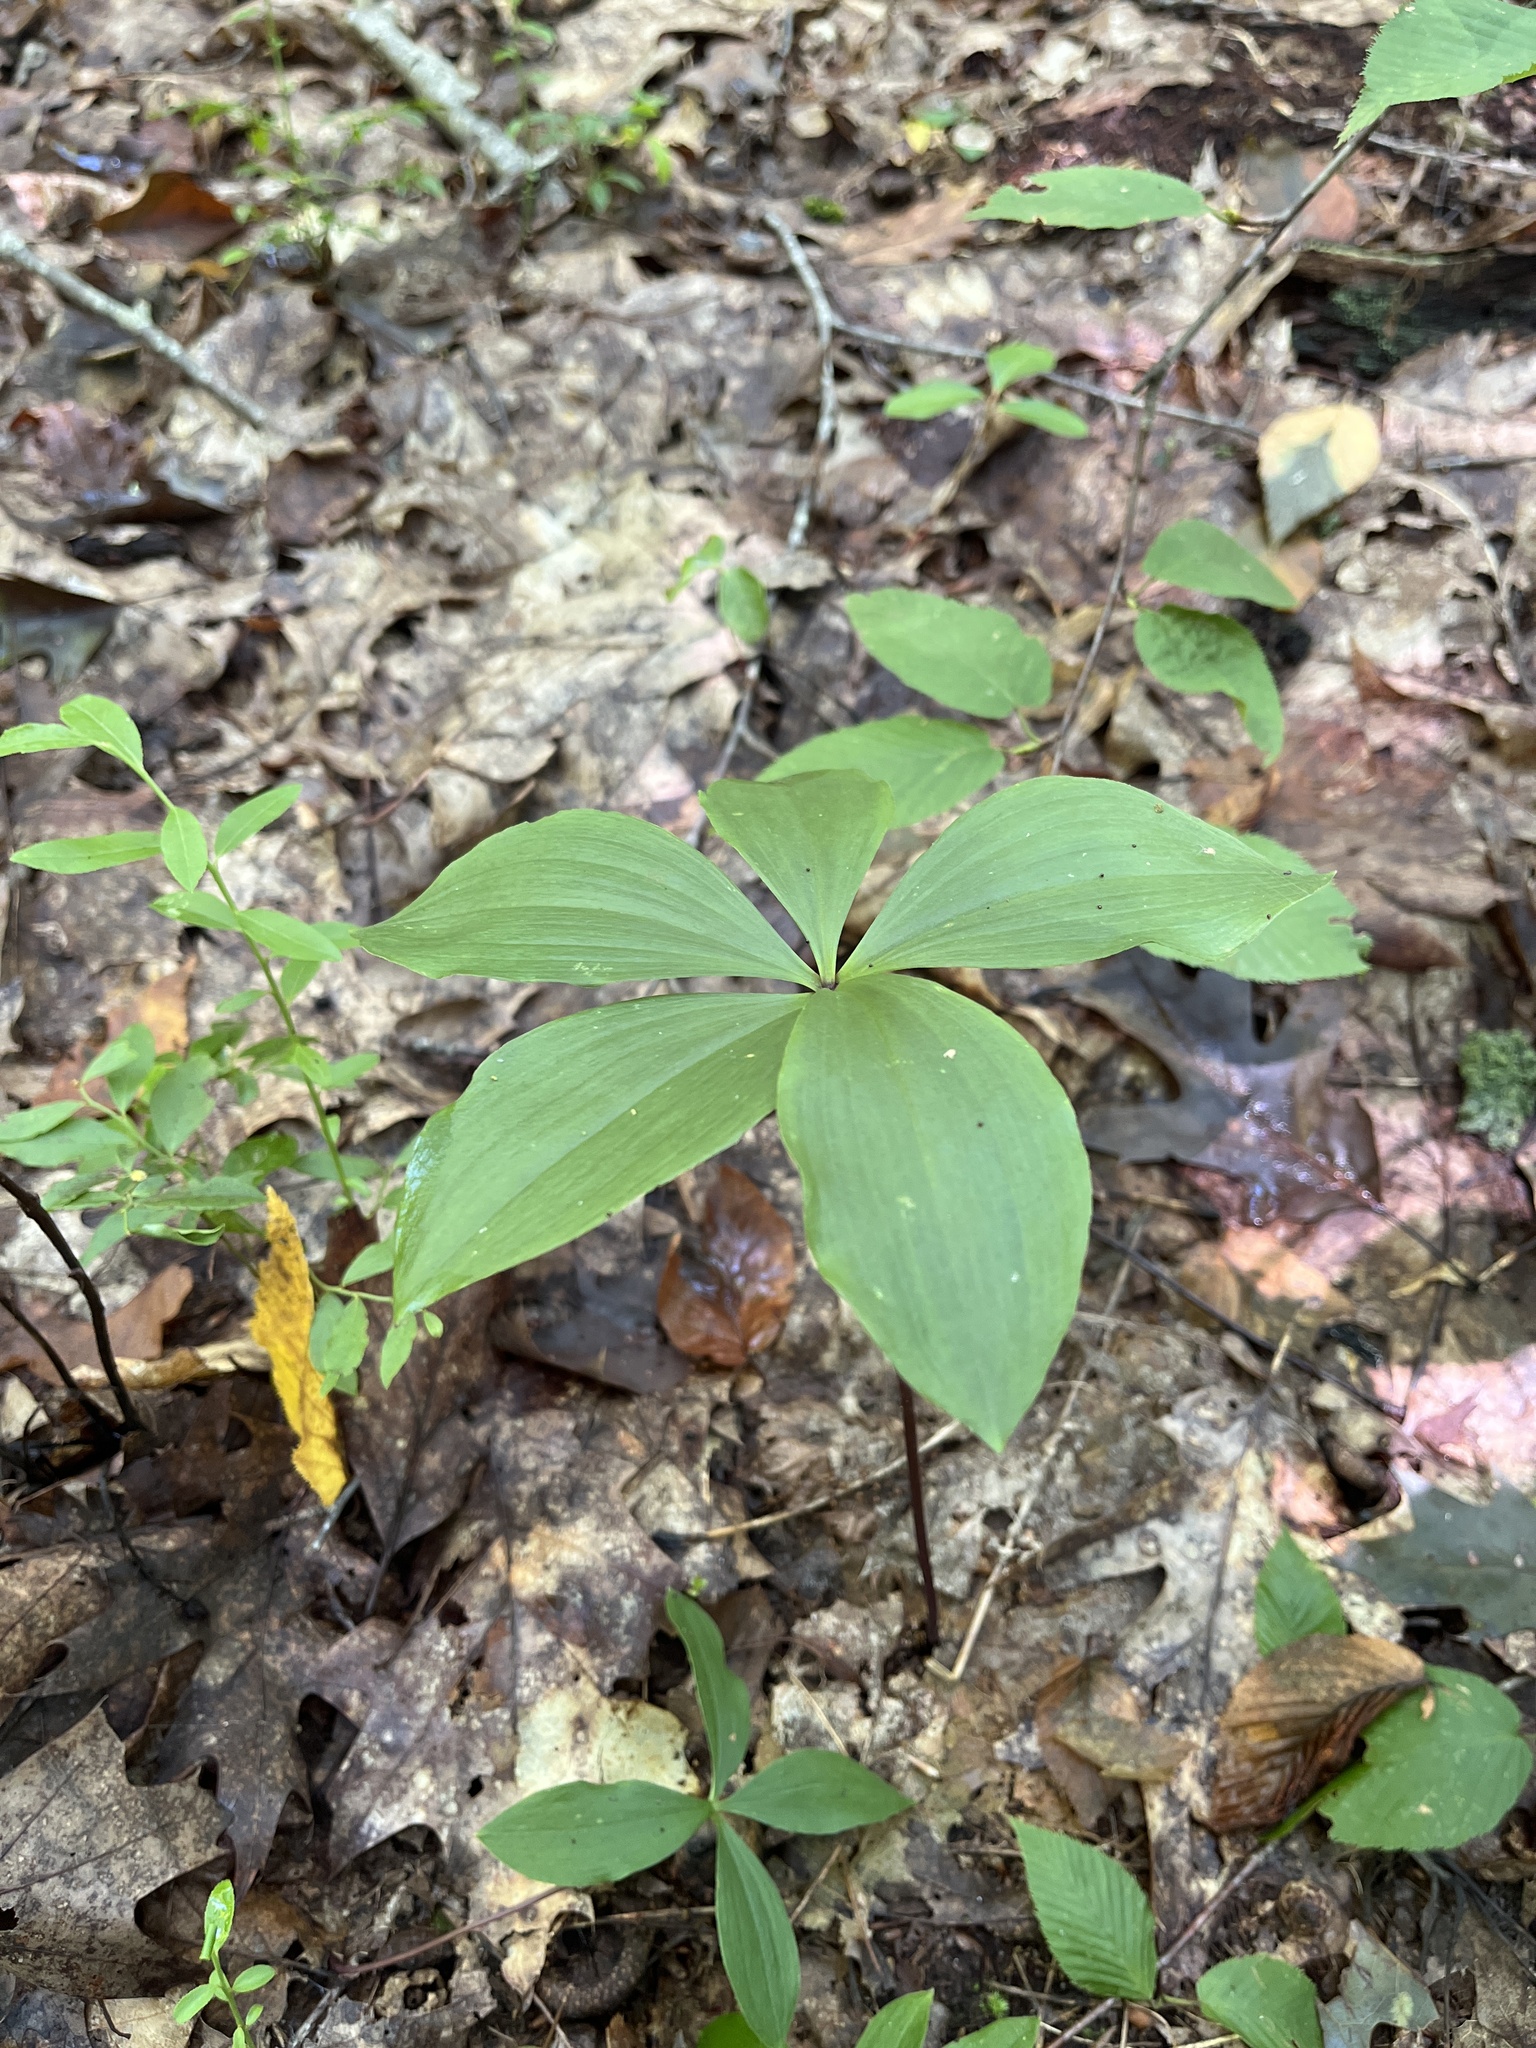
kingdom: Plantae
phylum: Tracheophyta
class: Liliopsida
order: Asparagales
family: Orchidaceae
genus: Isotria
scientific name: Isotria verticillata
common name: Large whorled pogonia
